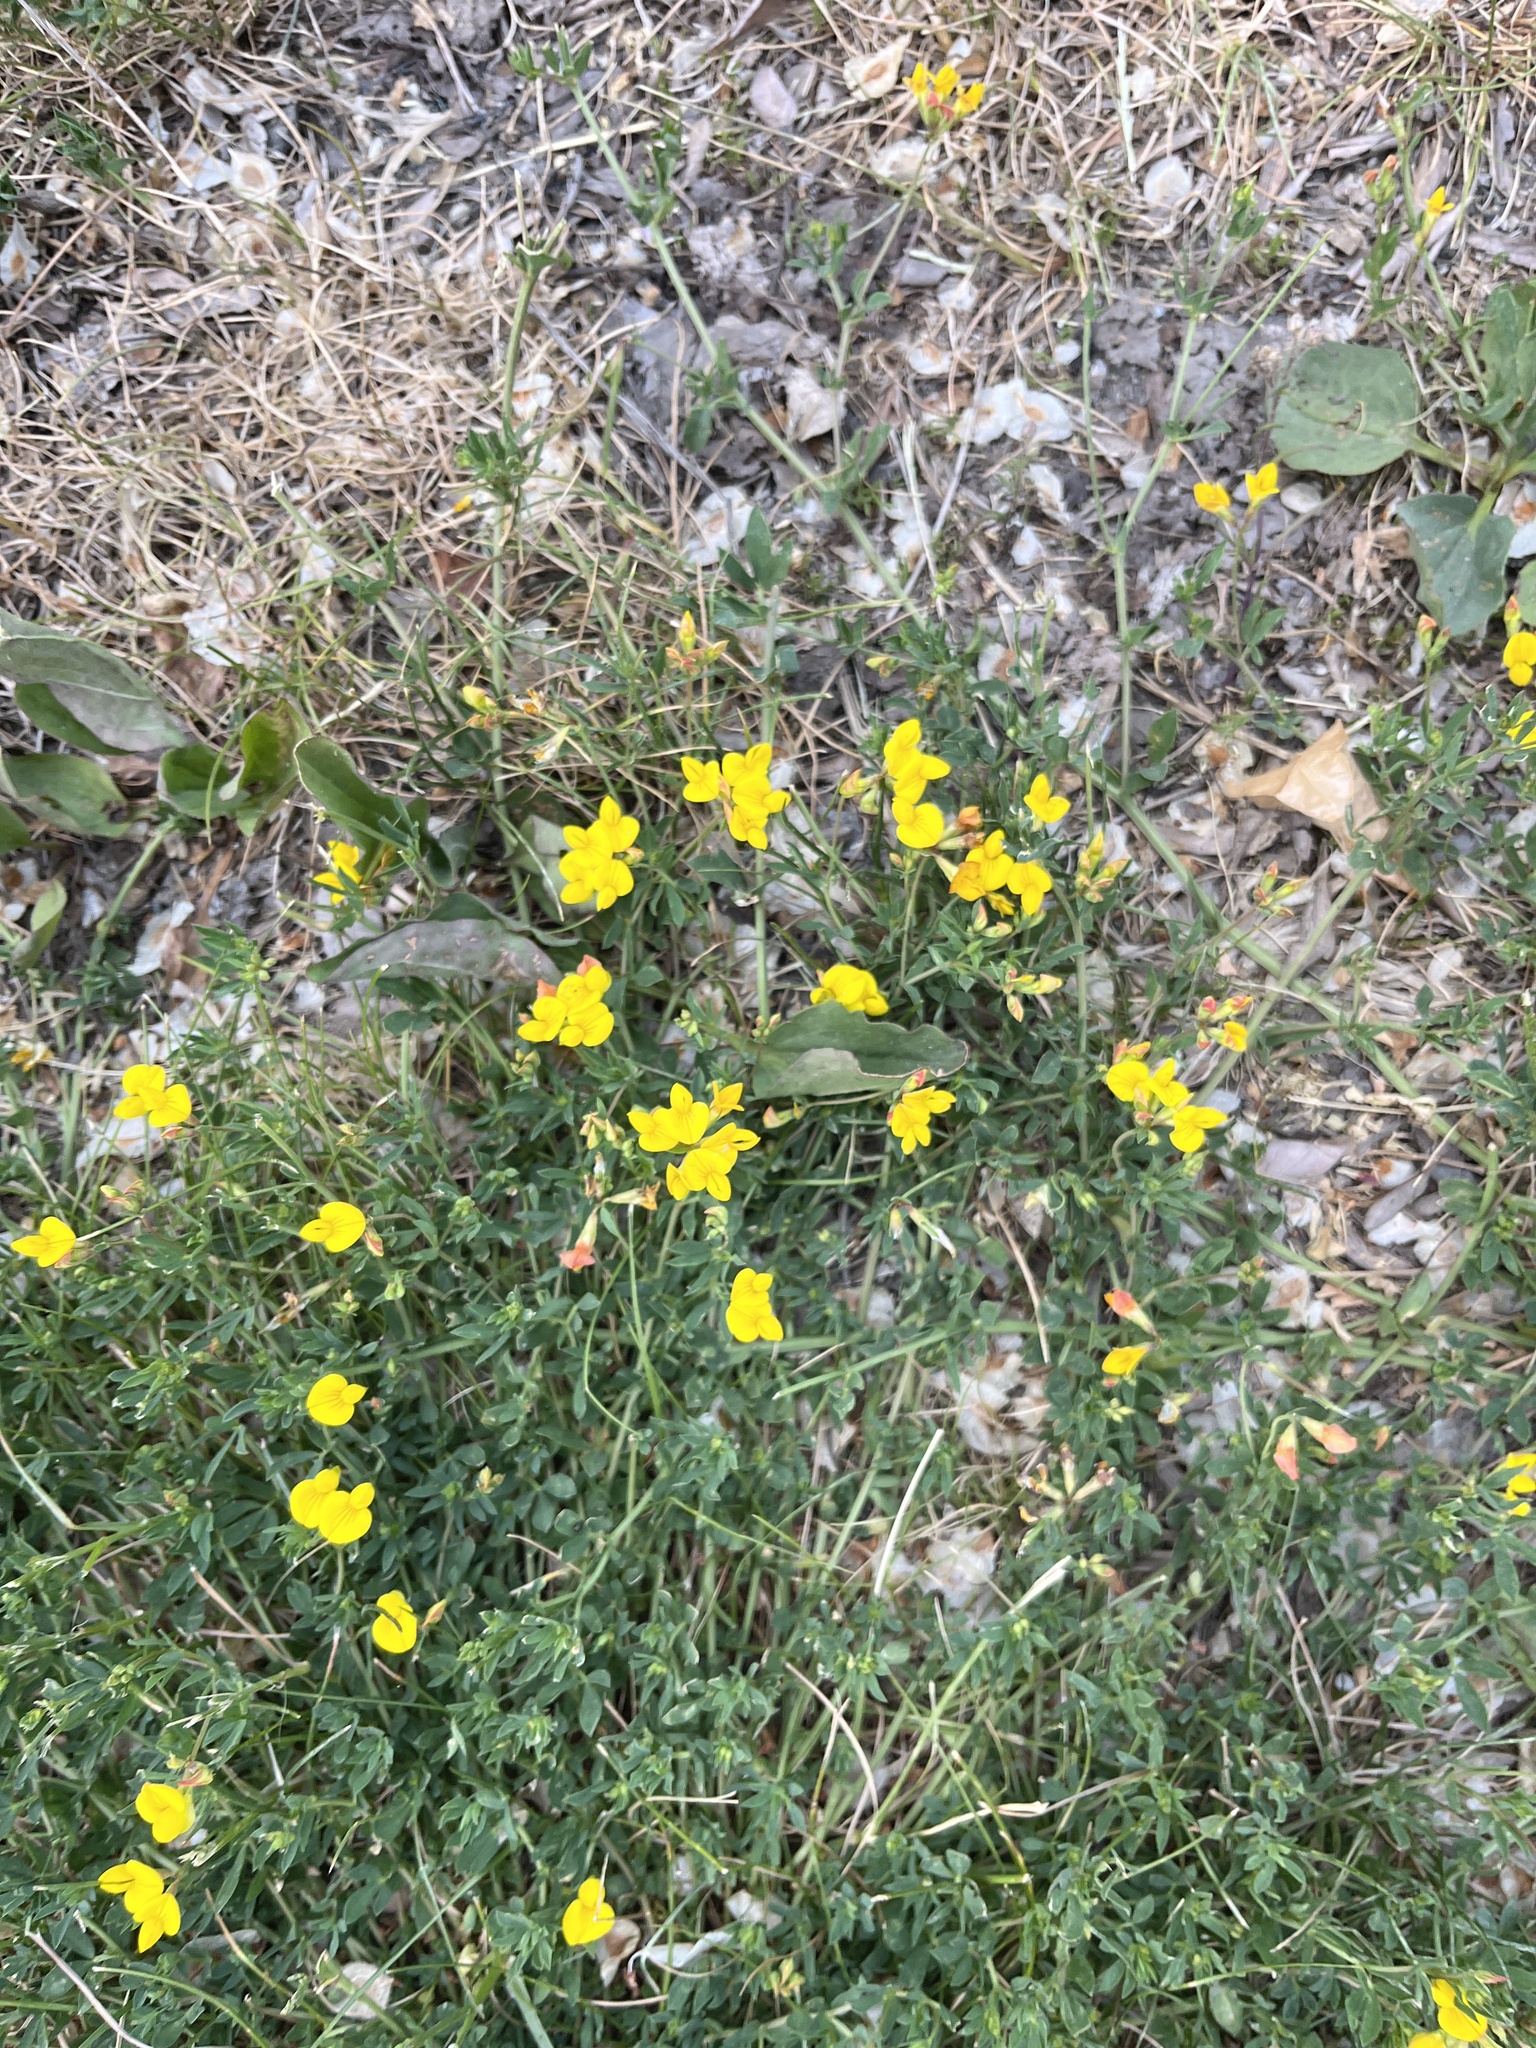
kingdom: Plantae
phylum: Tracheophyta
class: Magnoliopsida
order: Fabales
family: Fabaceae
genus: Lotus
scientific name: Lotus corniculatus
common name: Common bird's-foot-trefoil
